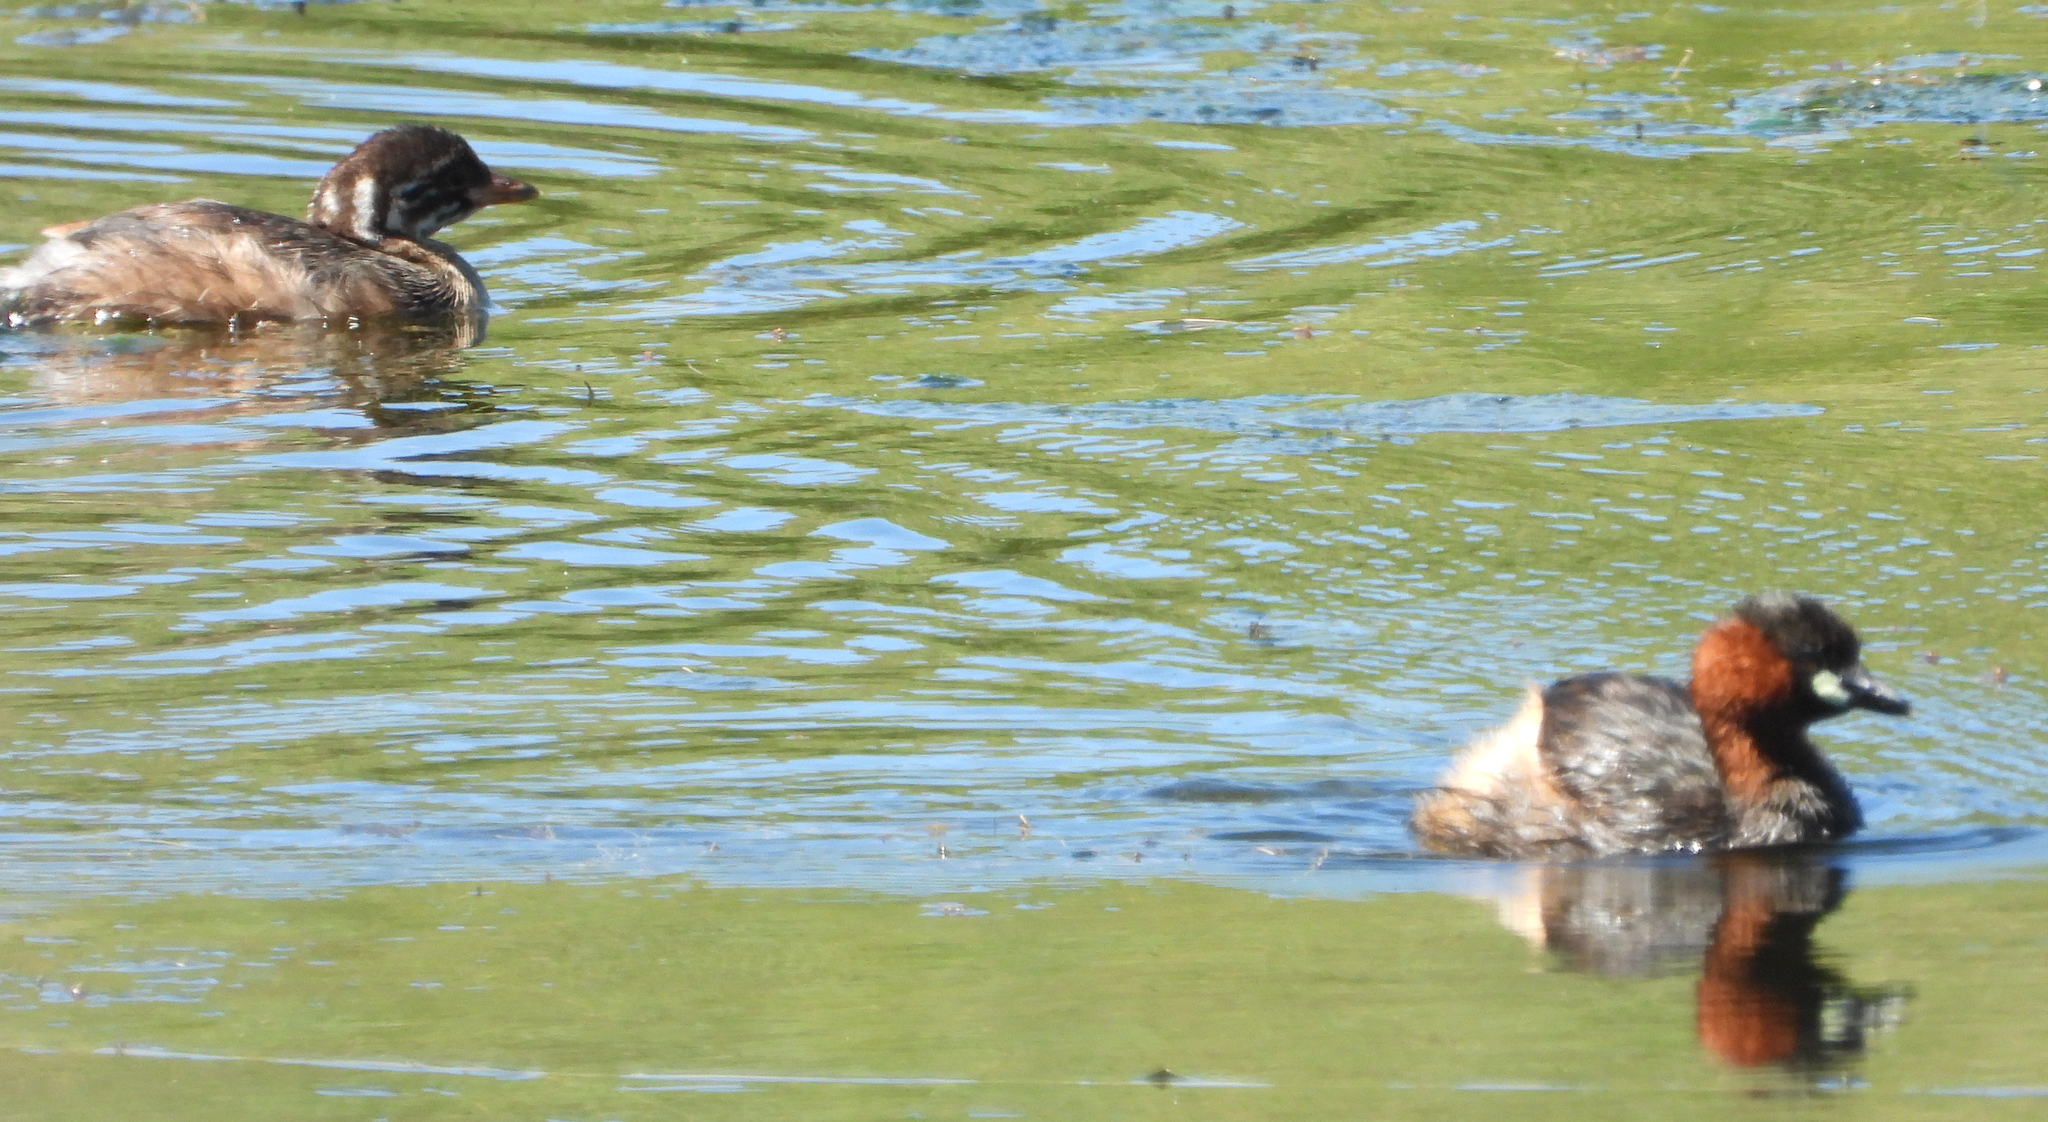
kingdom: Animalia
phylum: Chordata
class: Aves
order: Podicipediformes
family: Podicipedidae
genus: Tachybaptus
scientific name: Tachybaptus ruficollis
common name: Little grebe
